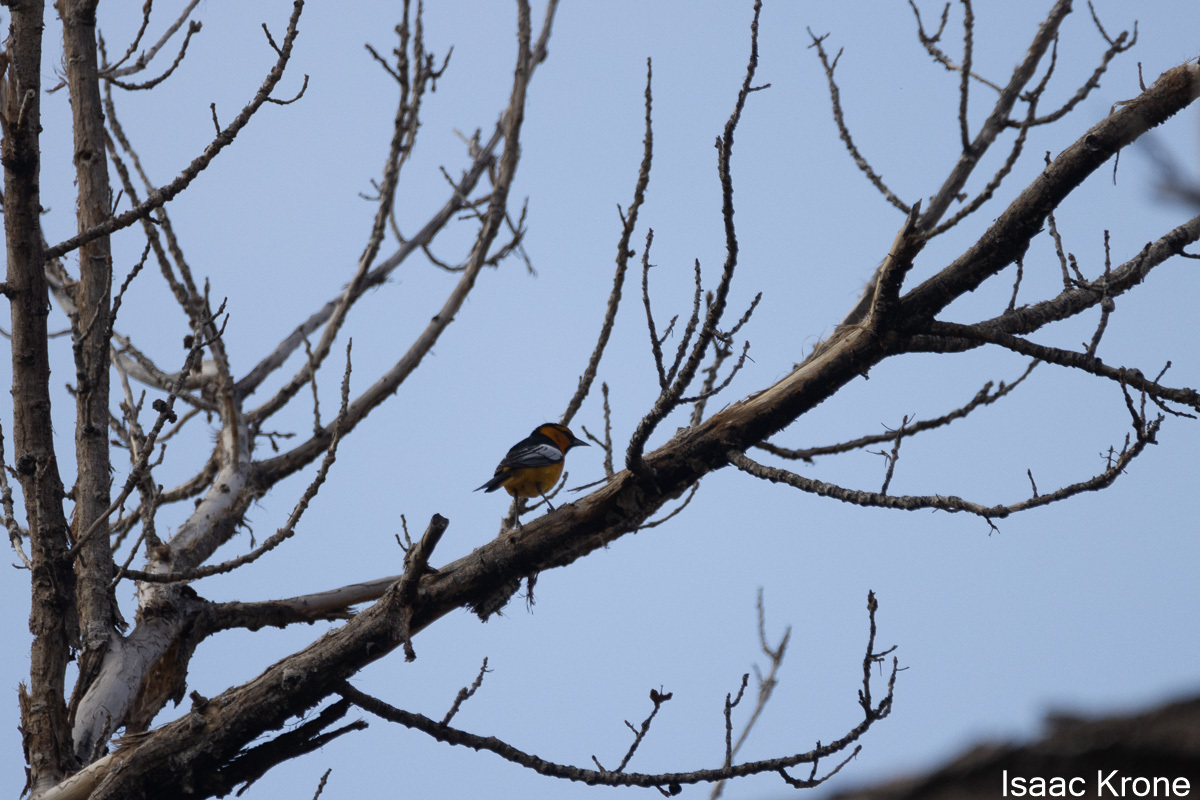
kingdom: Animalia
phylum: Chordata
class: Aves
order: Passeriformes
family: Icteridae
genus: Icterus
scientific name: Icterus bullockii
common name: Bullock's oriole
